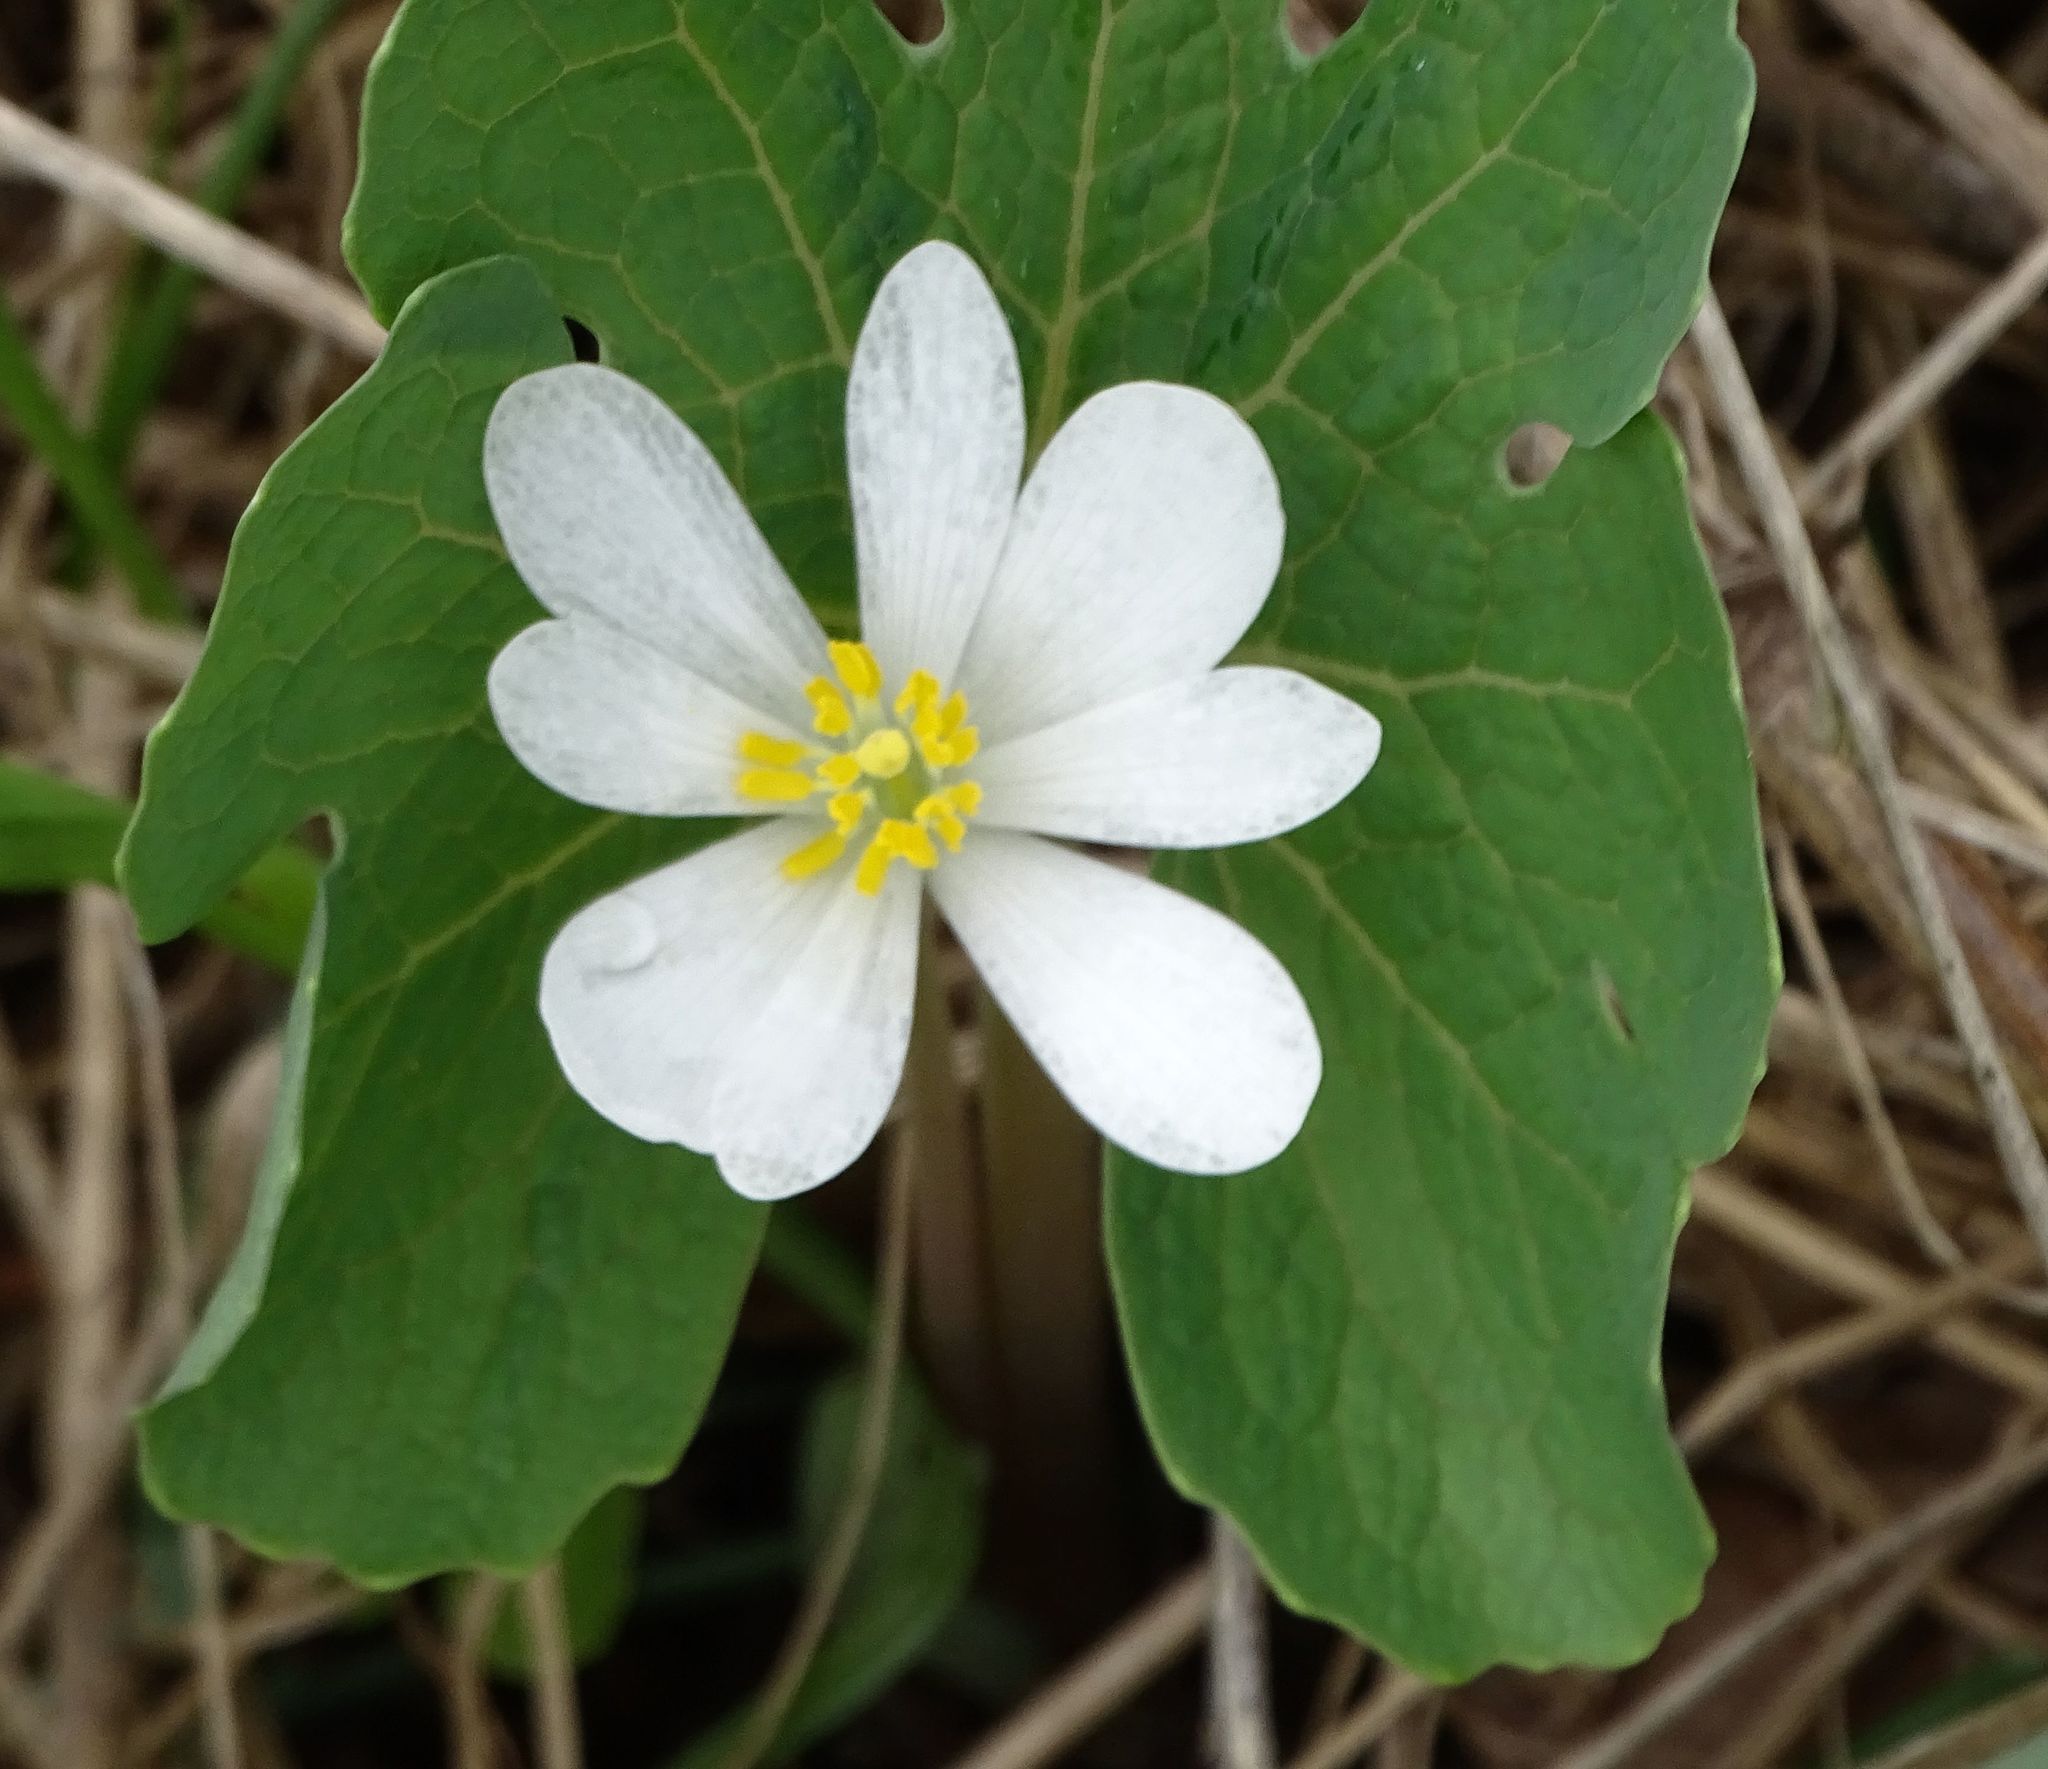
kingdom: Plantae
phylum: Tracheophyta
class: Magnoliopsida
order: Ranunculales
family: Papaveraceae
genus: Sanguinaria
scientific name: Sanguinaria canadensis
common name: Bloodroot
